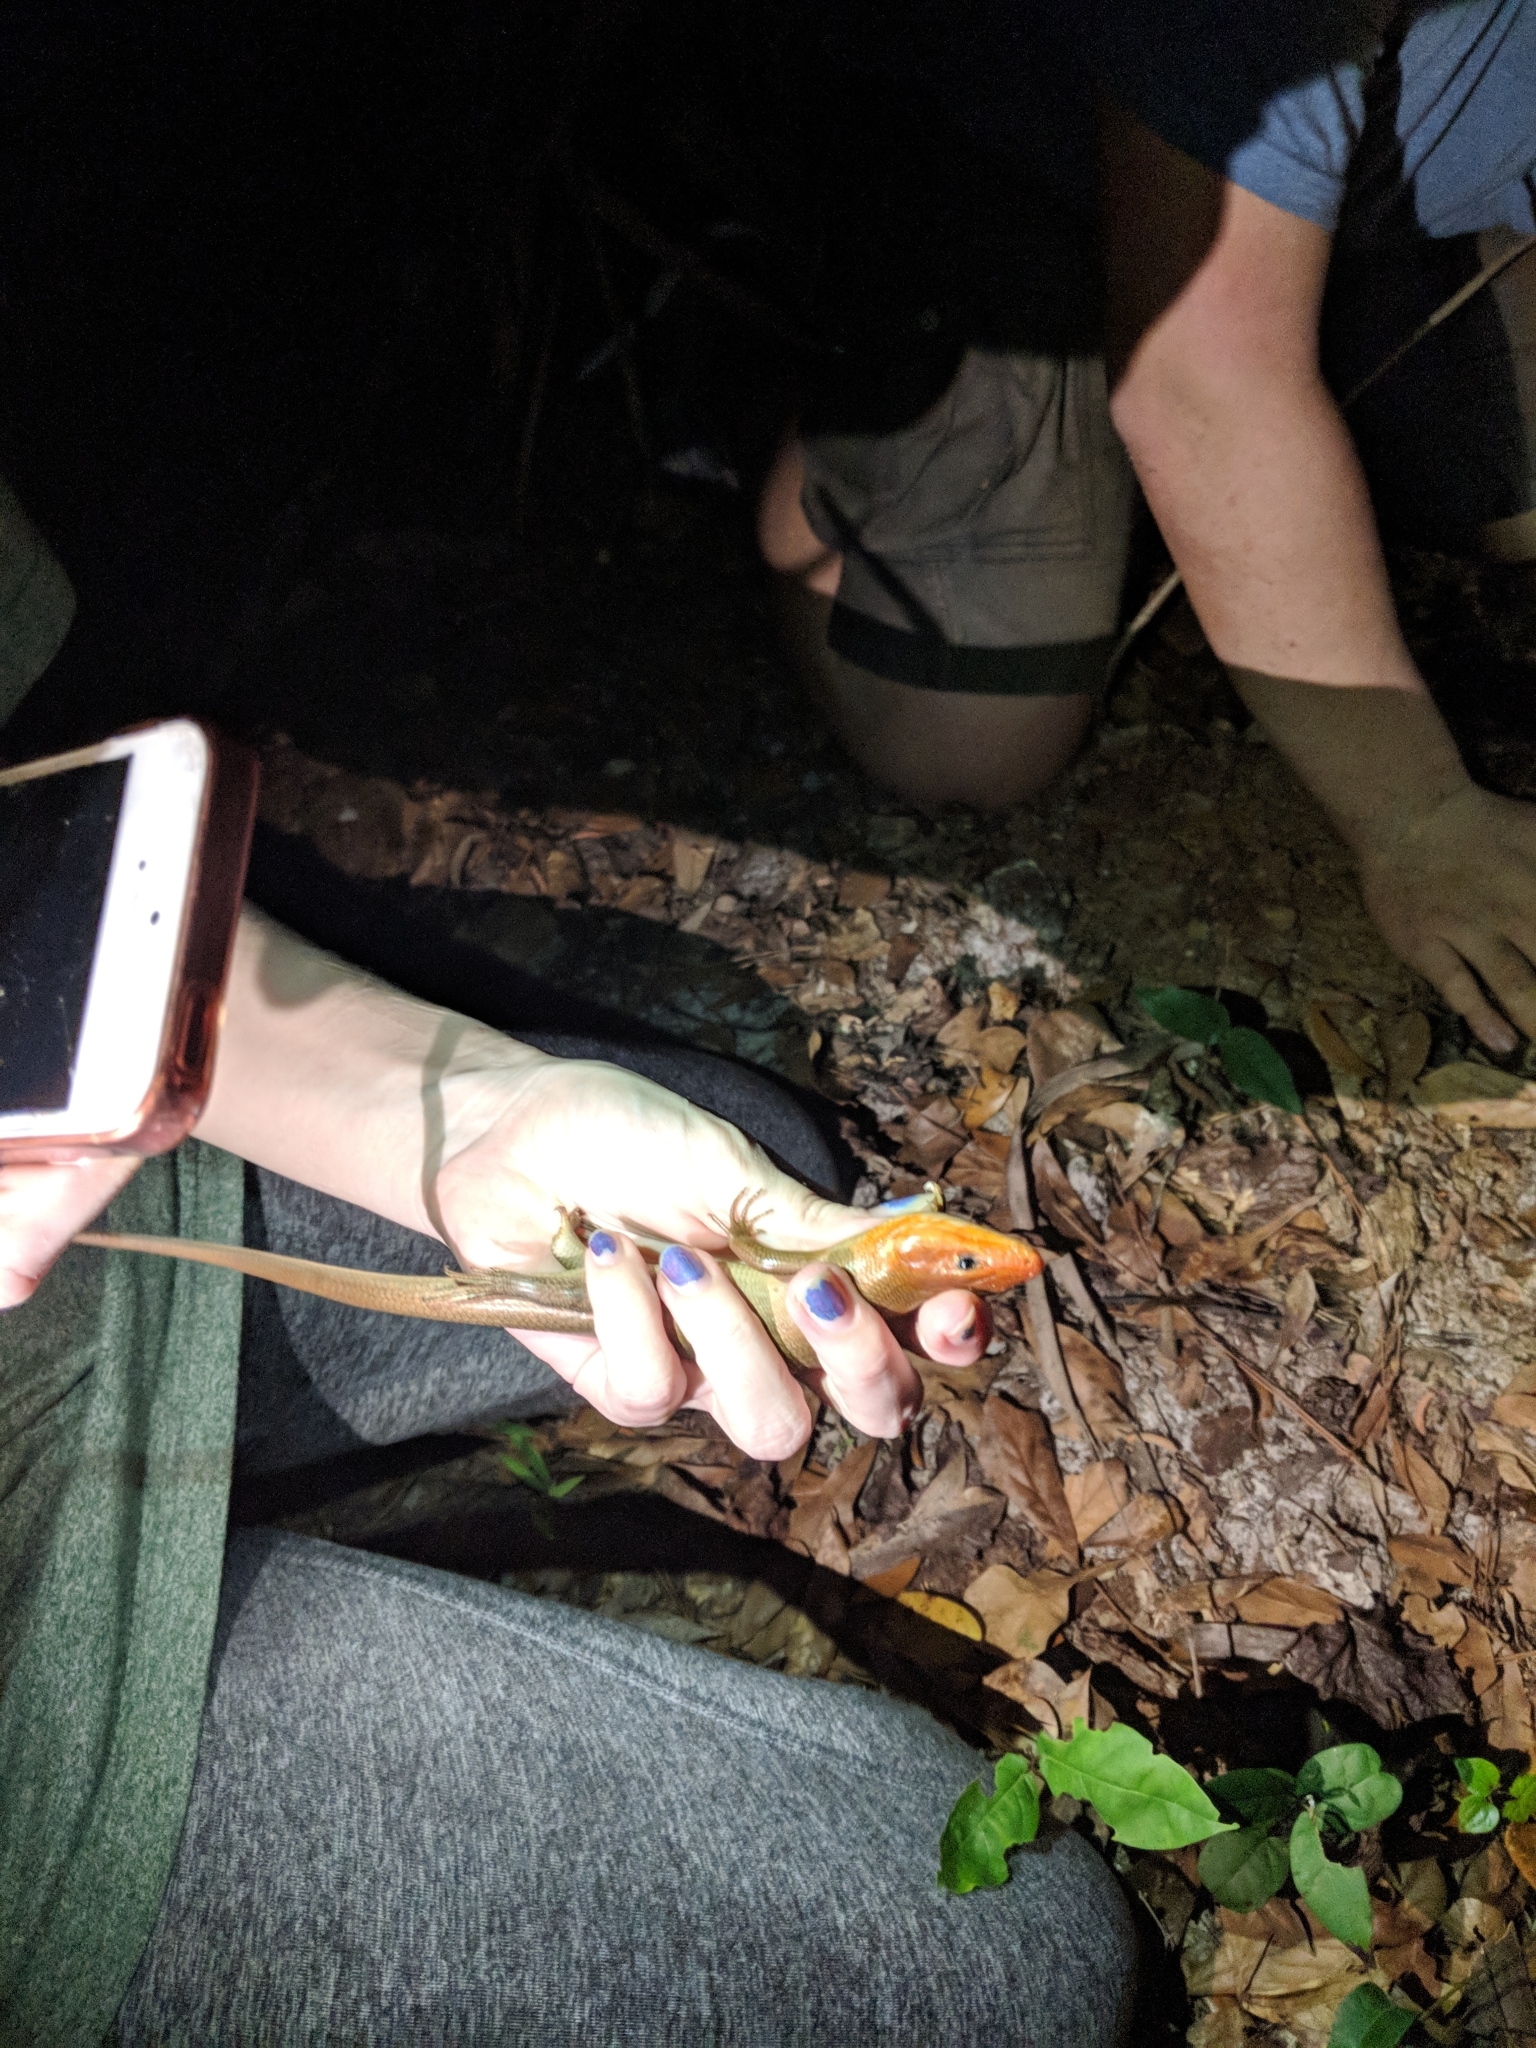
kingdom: Animalia
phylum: Chordata
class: Squamata
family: Scincidae
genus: Plestiodon
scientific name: Plestiodon laticeps
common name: Broadhead skink
